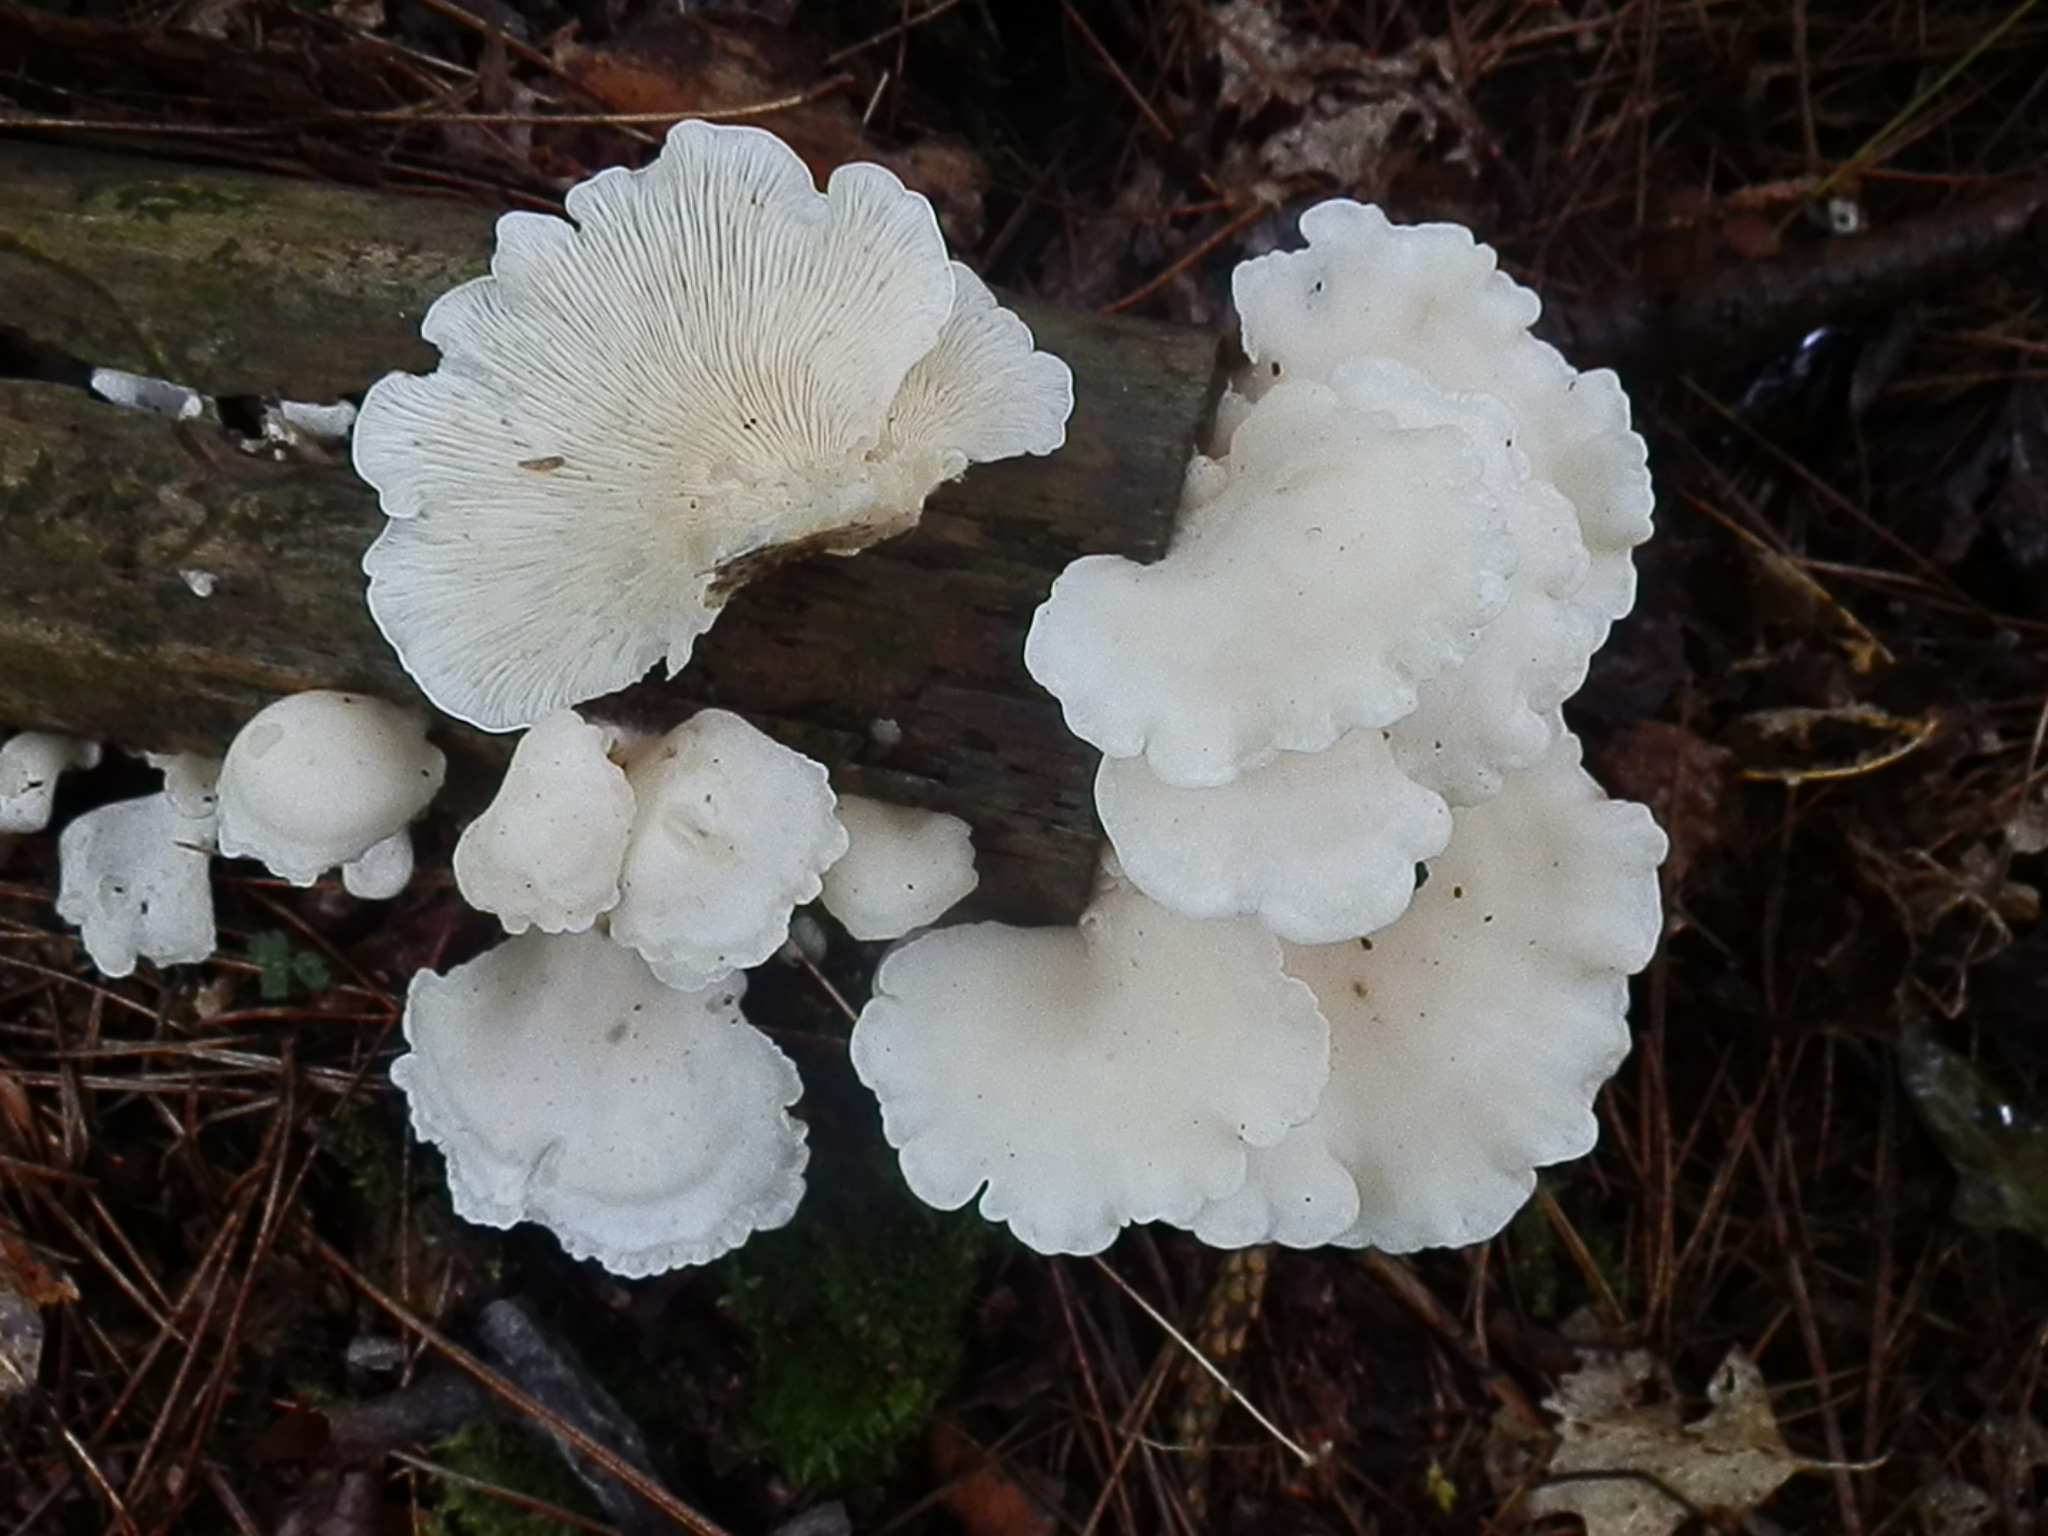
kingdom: Fungi
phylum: Basidiomycota
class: Agaricomycetes
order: Agaricales
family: Pleurotaceae
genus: Pleurotus
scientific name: Pleurotus pulmonarius
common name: Pale oyster
